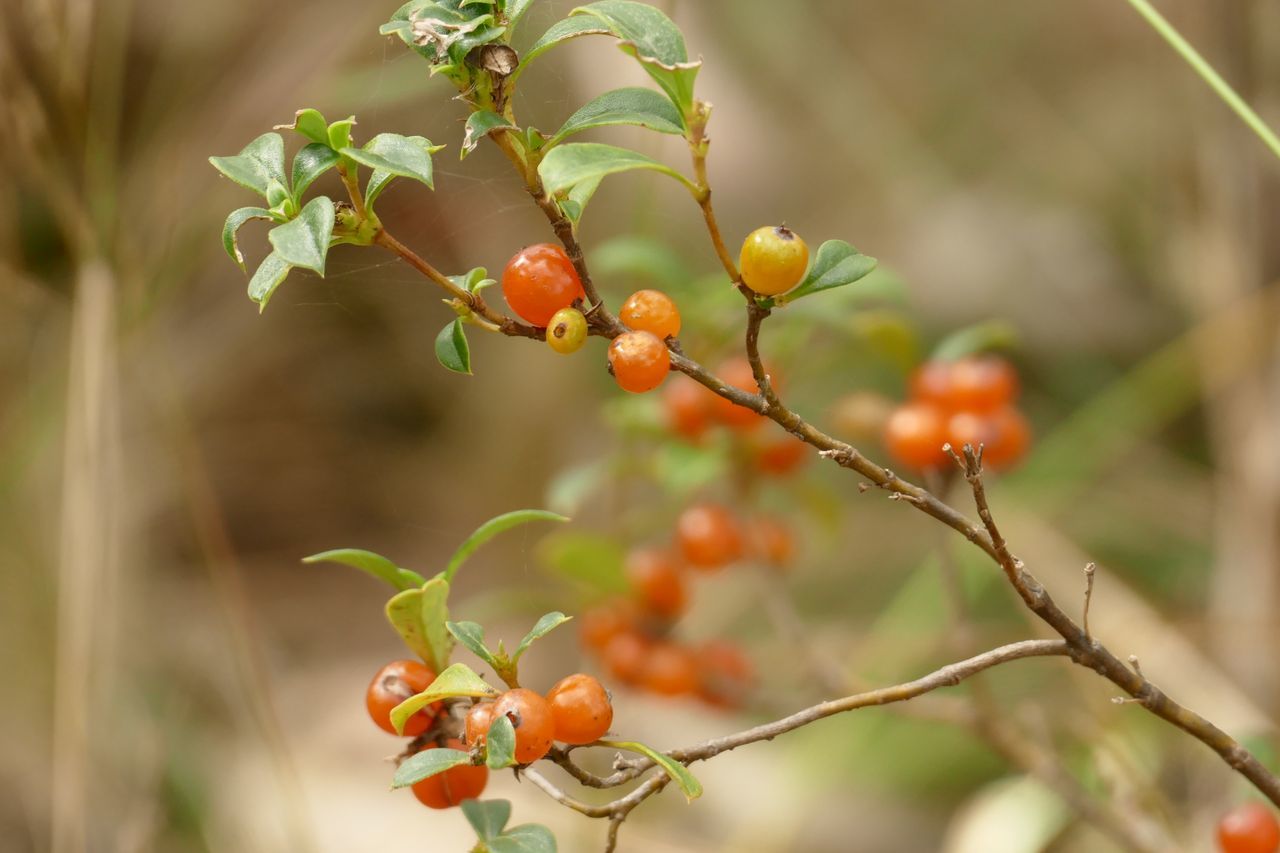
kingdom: Plantae
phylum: Tracheophyta
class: Magnoliopsida
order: Gentianales
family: Rubiaceae
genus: Coprosma
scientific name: Coprosma hirtella
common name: Rough coprosma
